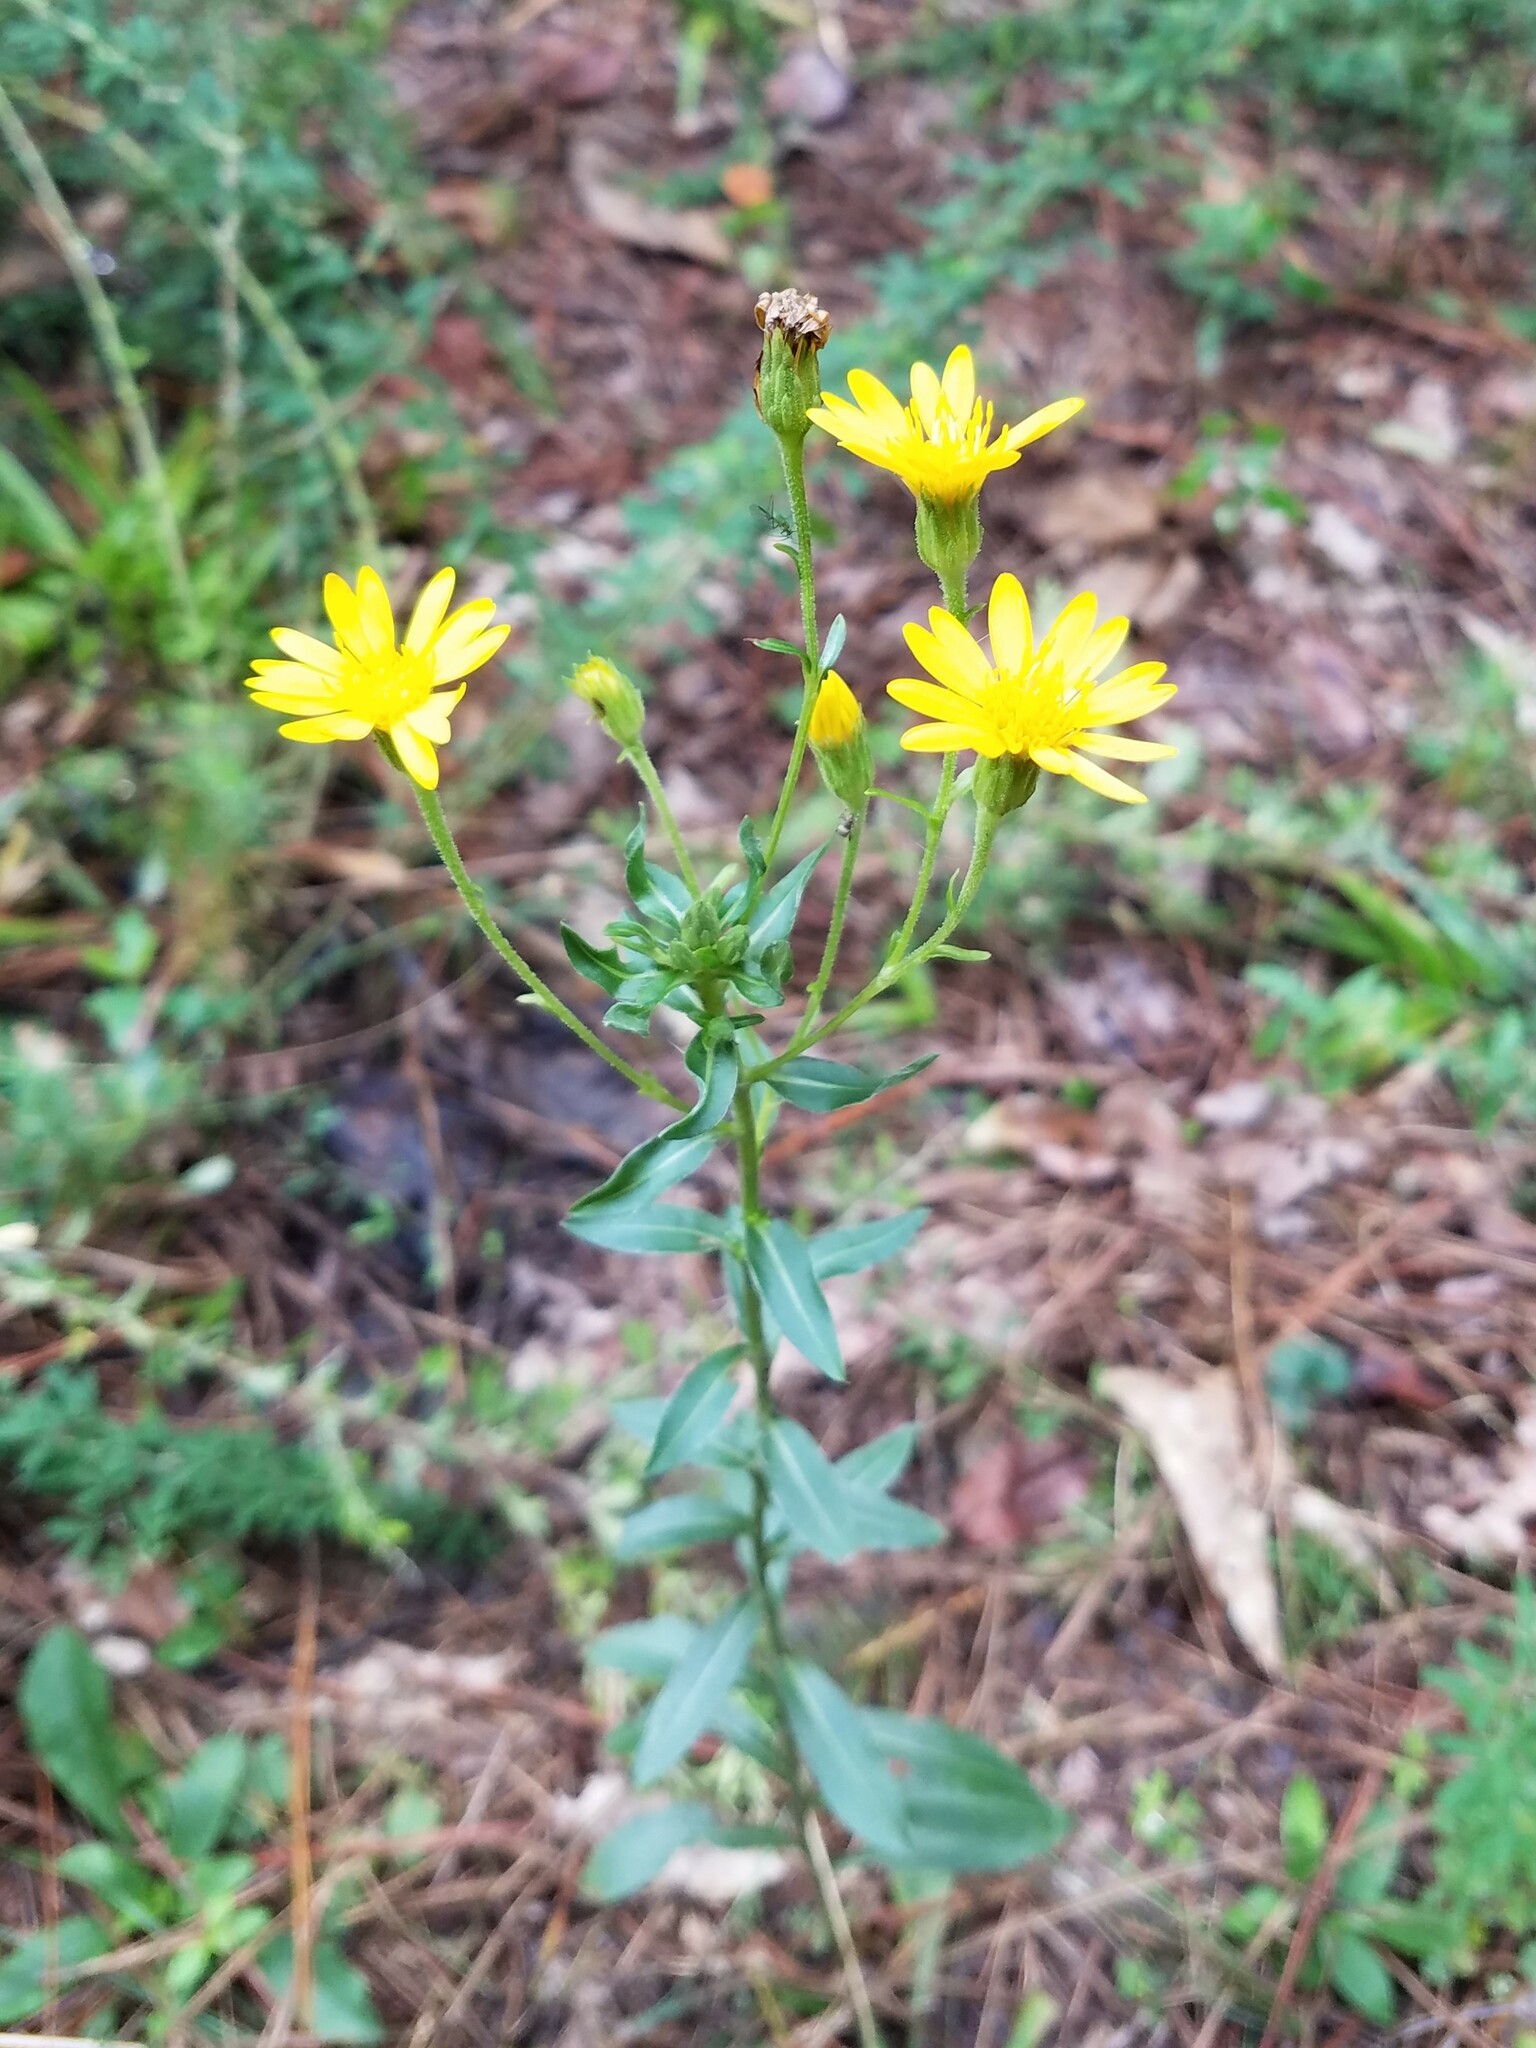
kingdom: Plantae
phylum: Tracheophyta
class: Magnoliopsida
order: Asterales
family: Asteraceae
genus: Chrysopsis
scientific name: Chrysopsis mariana
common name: Maryland golden-aster
